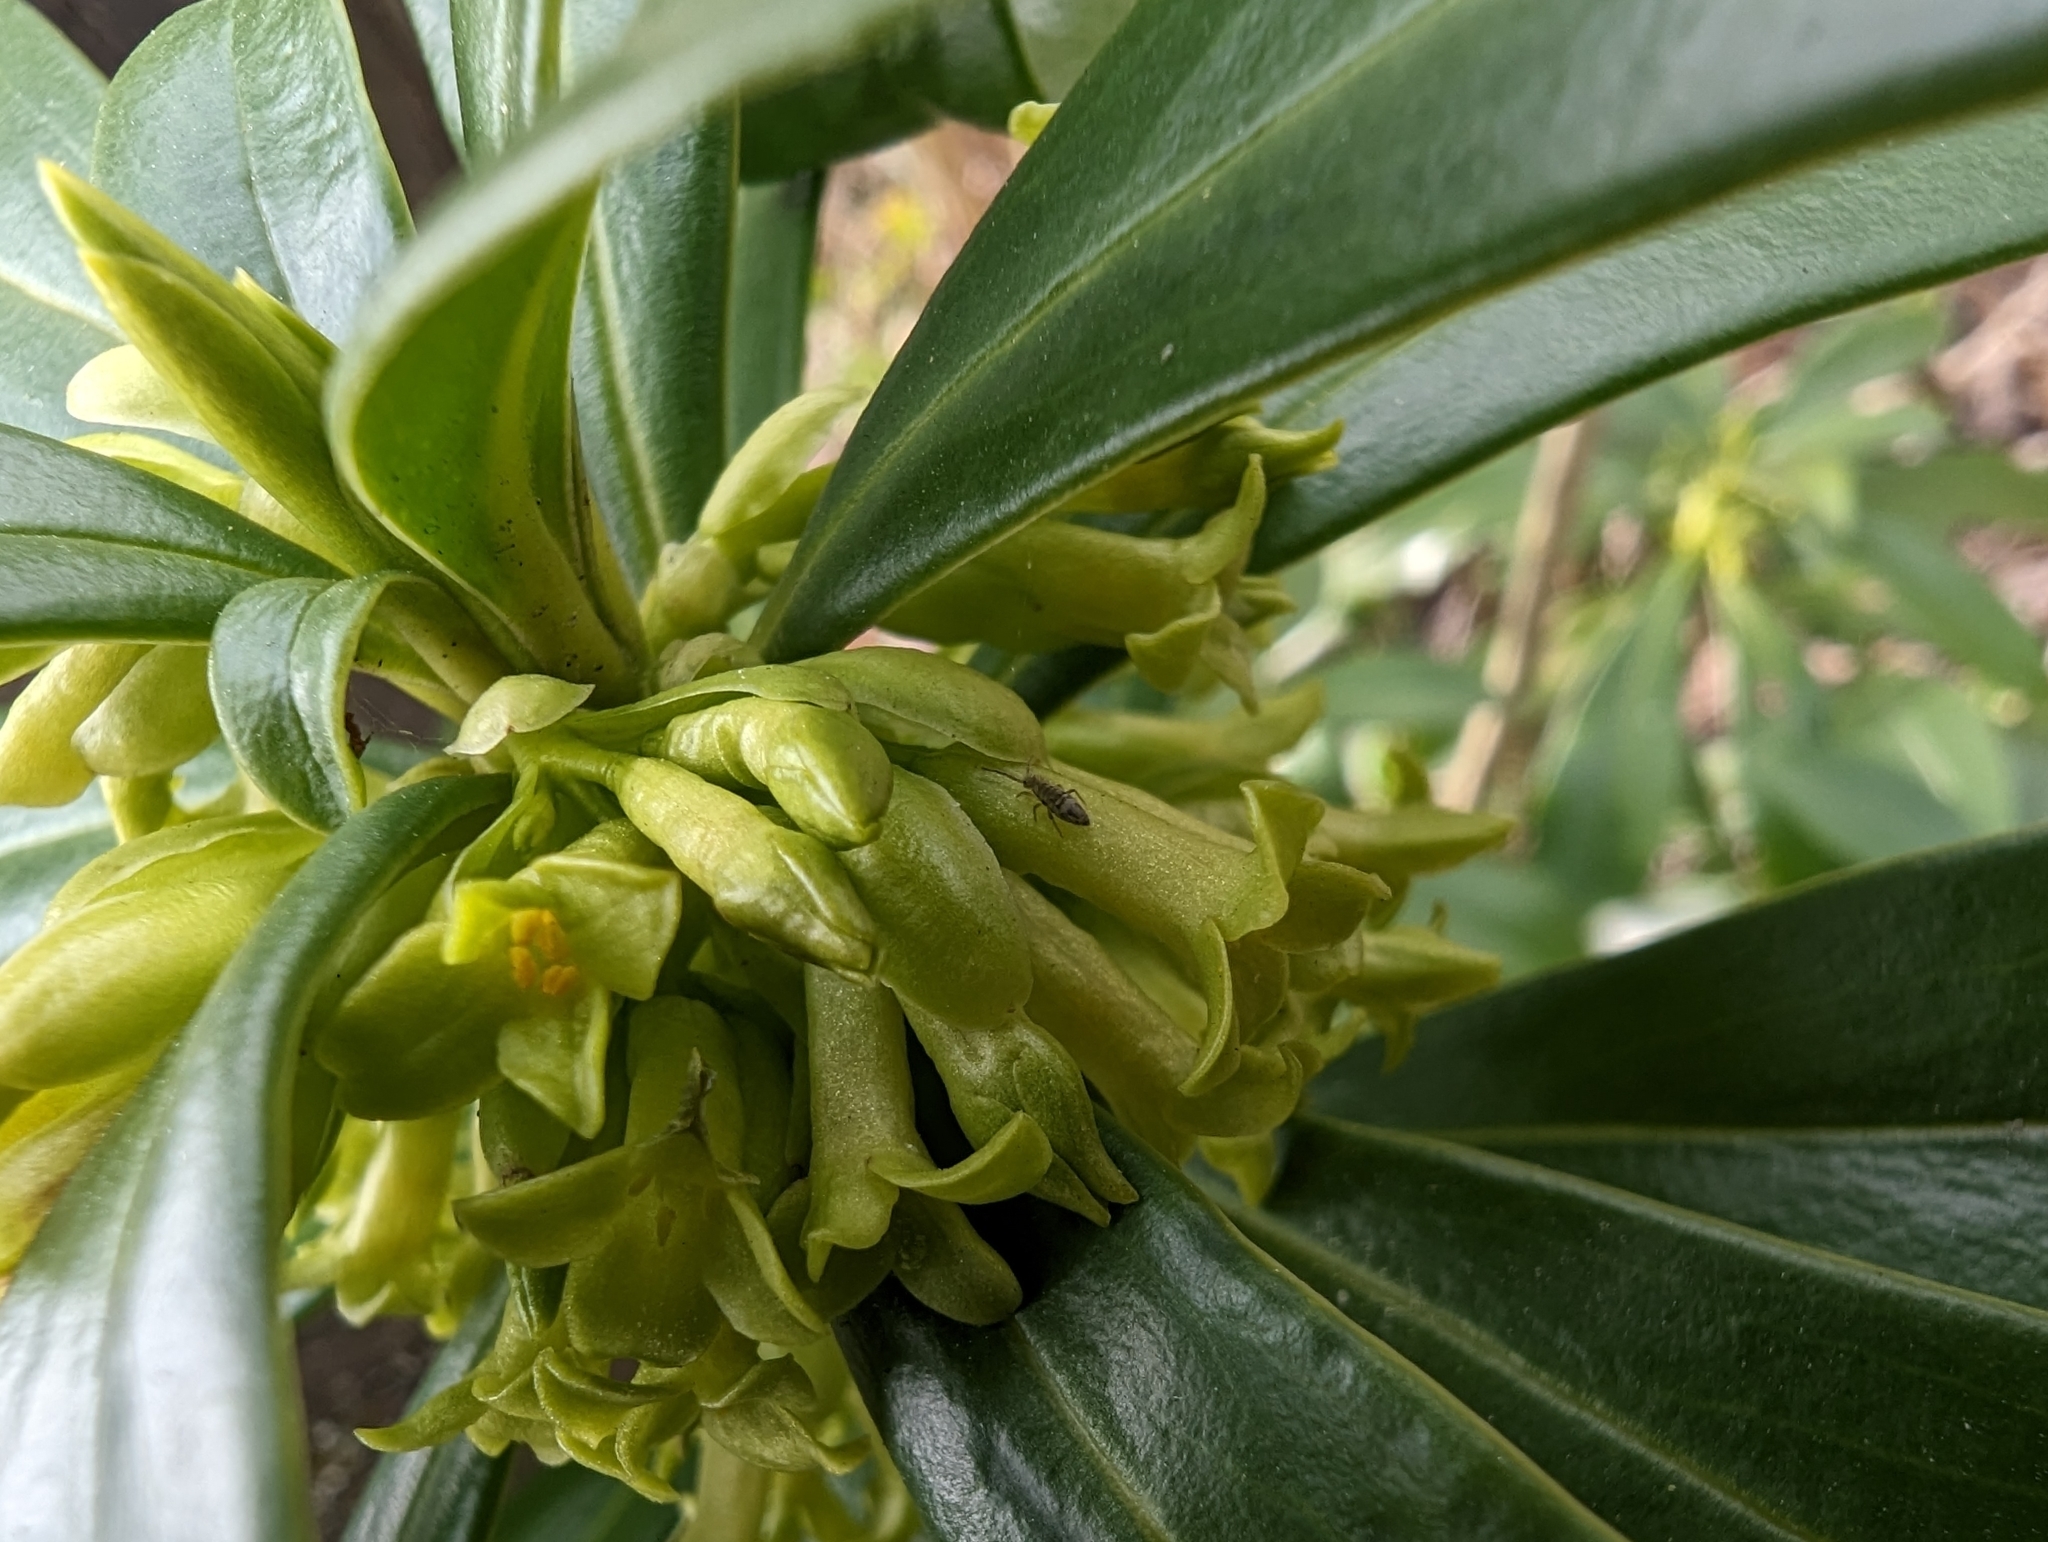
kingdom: Plantae
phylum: Tracheophyta
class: Magnoliopsida
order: Malvales
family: Thymelaeaceae
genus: Daphne
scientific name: Daphne laureola
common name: Spurge-laurel
